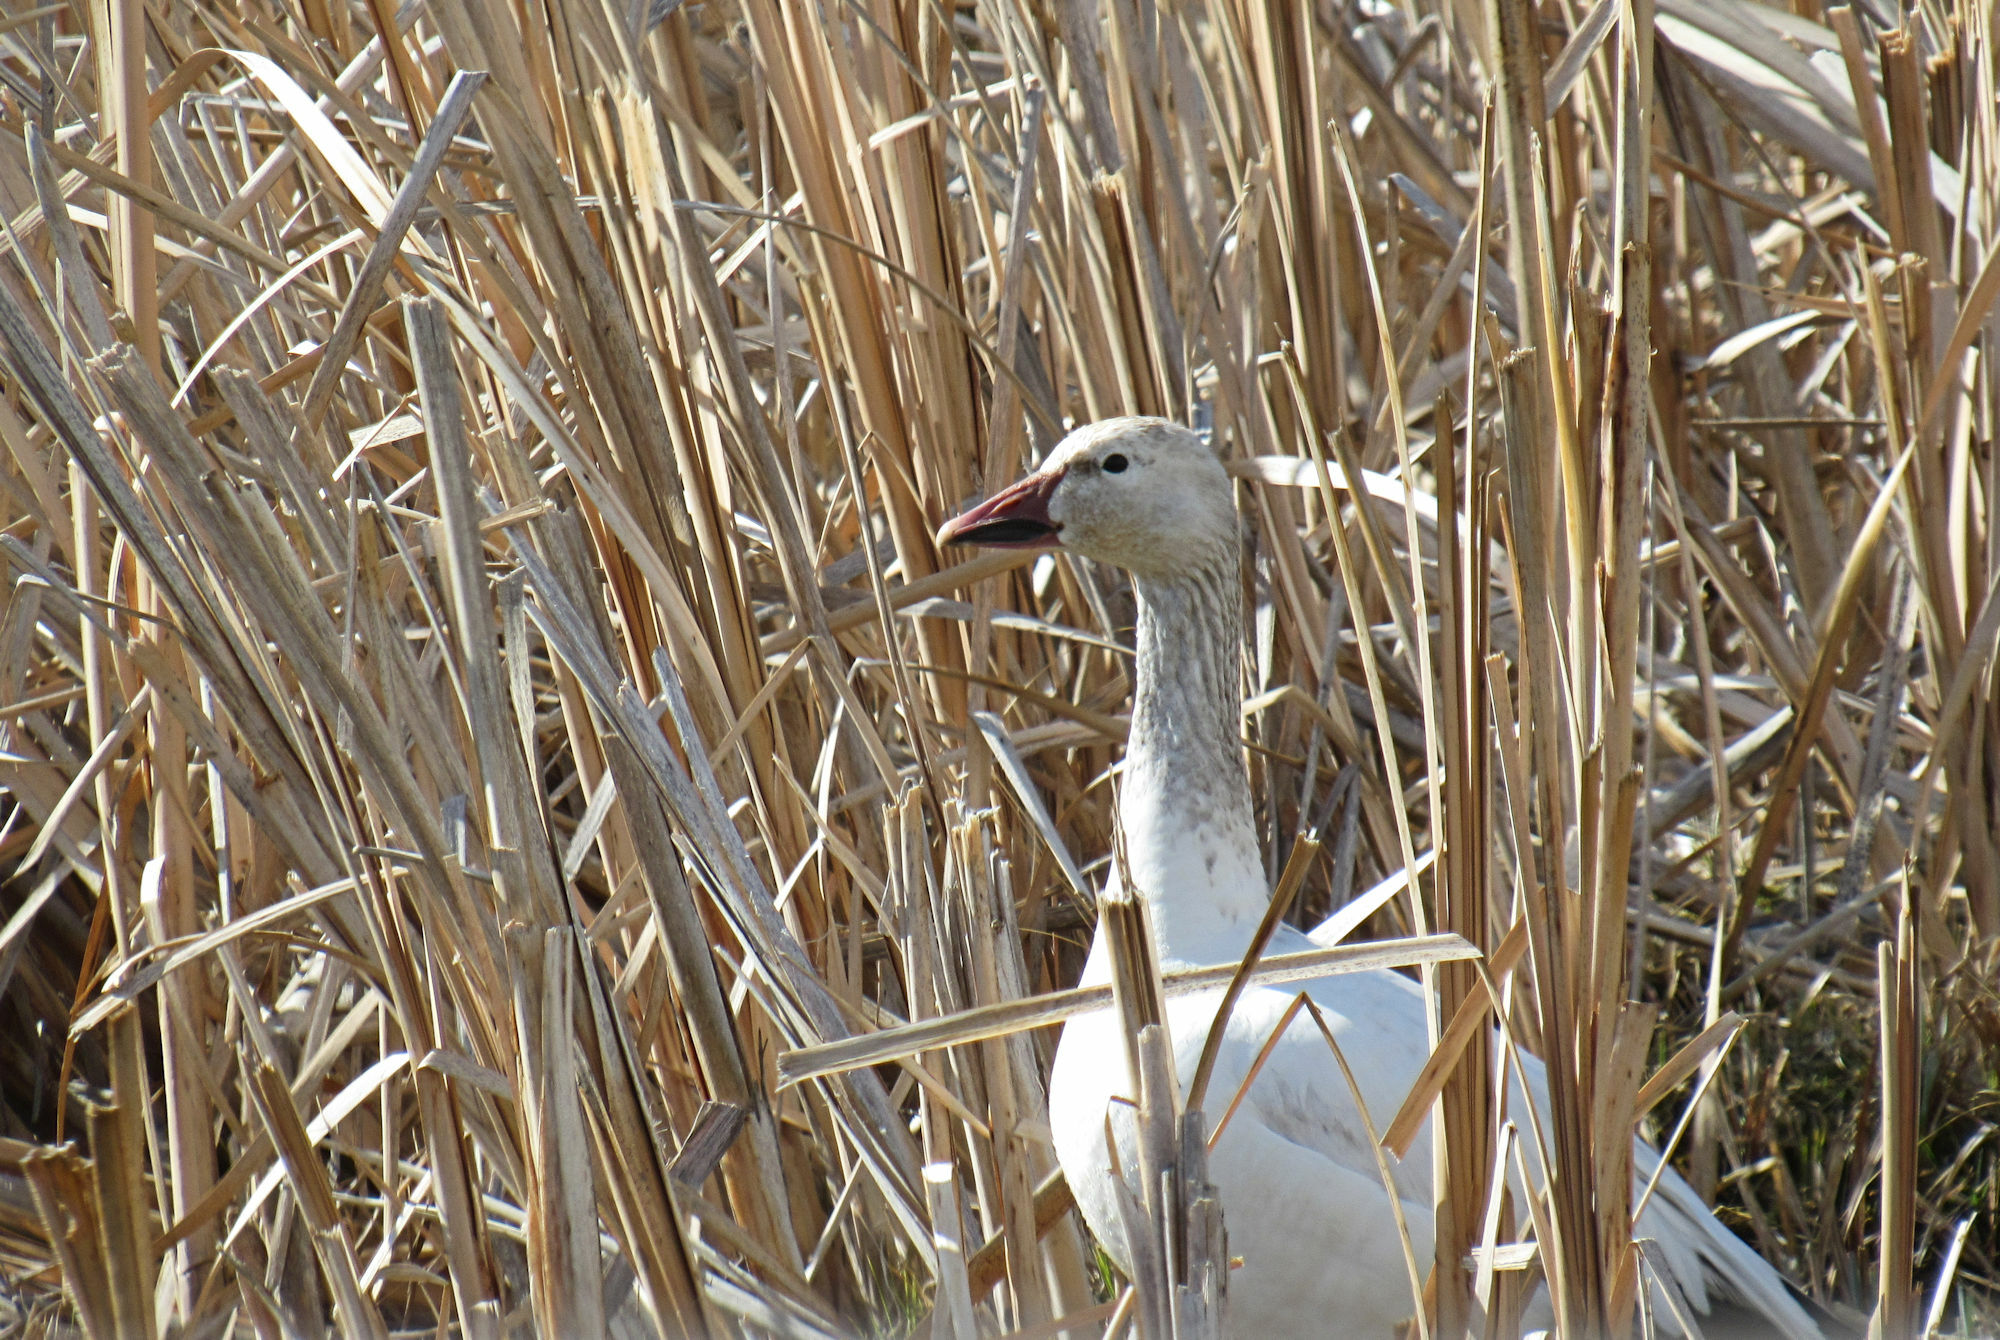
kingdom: Animalia
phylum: Chordata
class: Aves
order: Anseriformes
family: Anatidae
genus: Anser
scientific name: Anser caerulescens
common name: Snow goose
